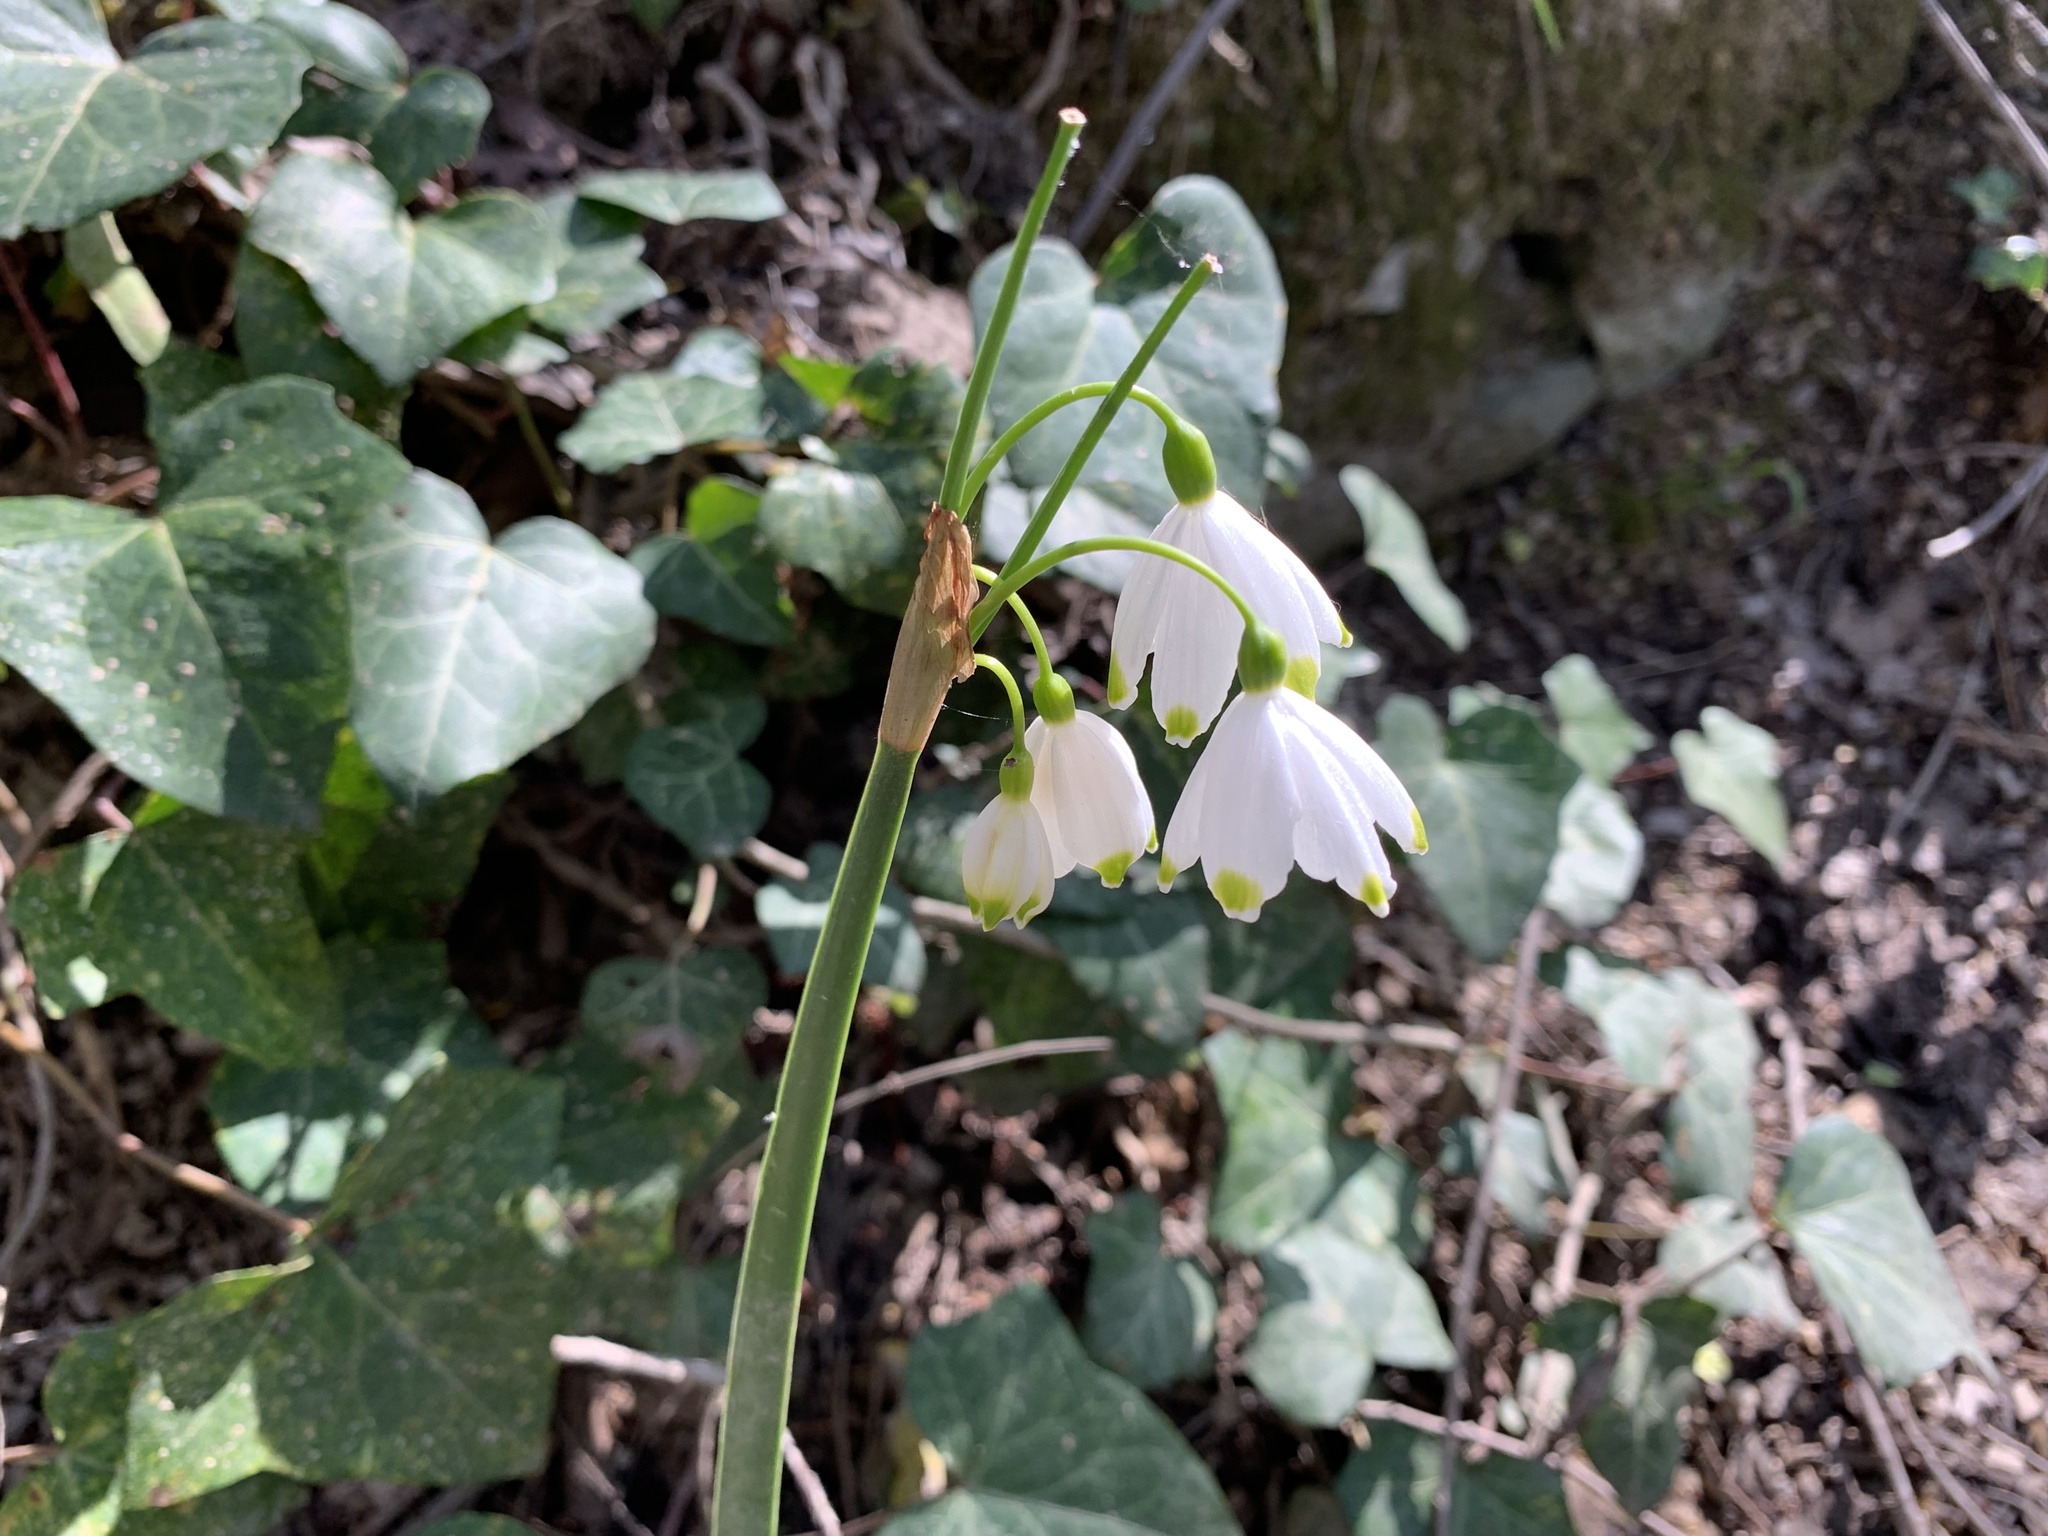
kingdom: Plantae
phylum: Tracheophyta
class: Liliopsida
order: Asparagales
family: Amaryllidaceae
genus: Leucojum
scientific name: Leucojum aestivum
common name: Summer snowflake
